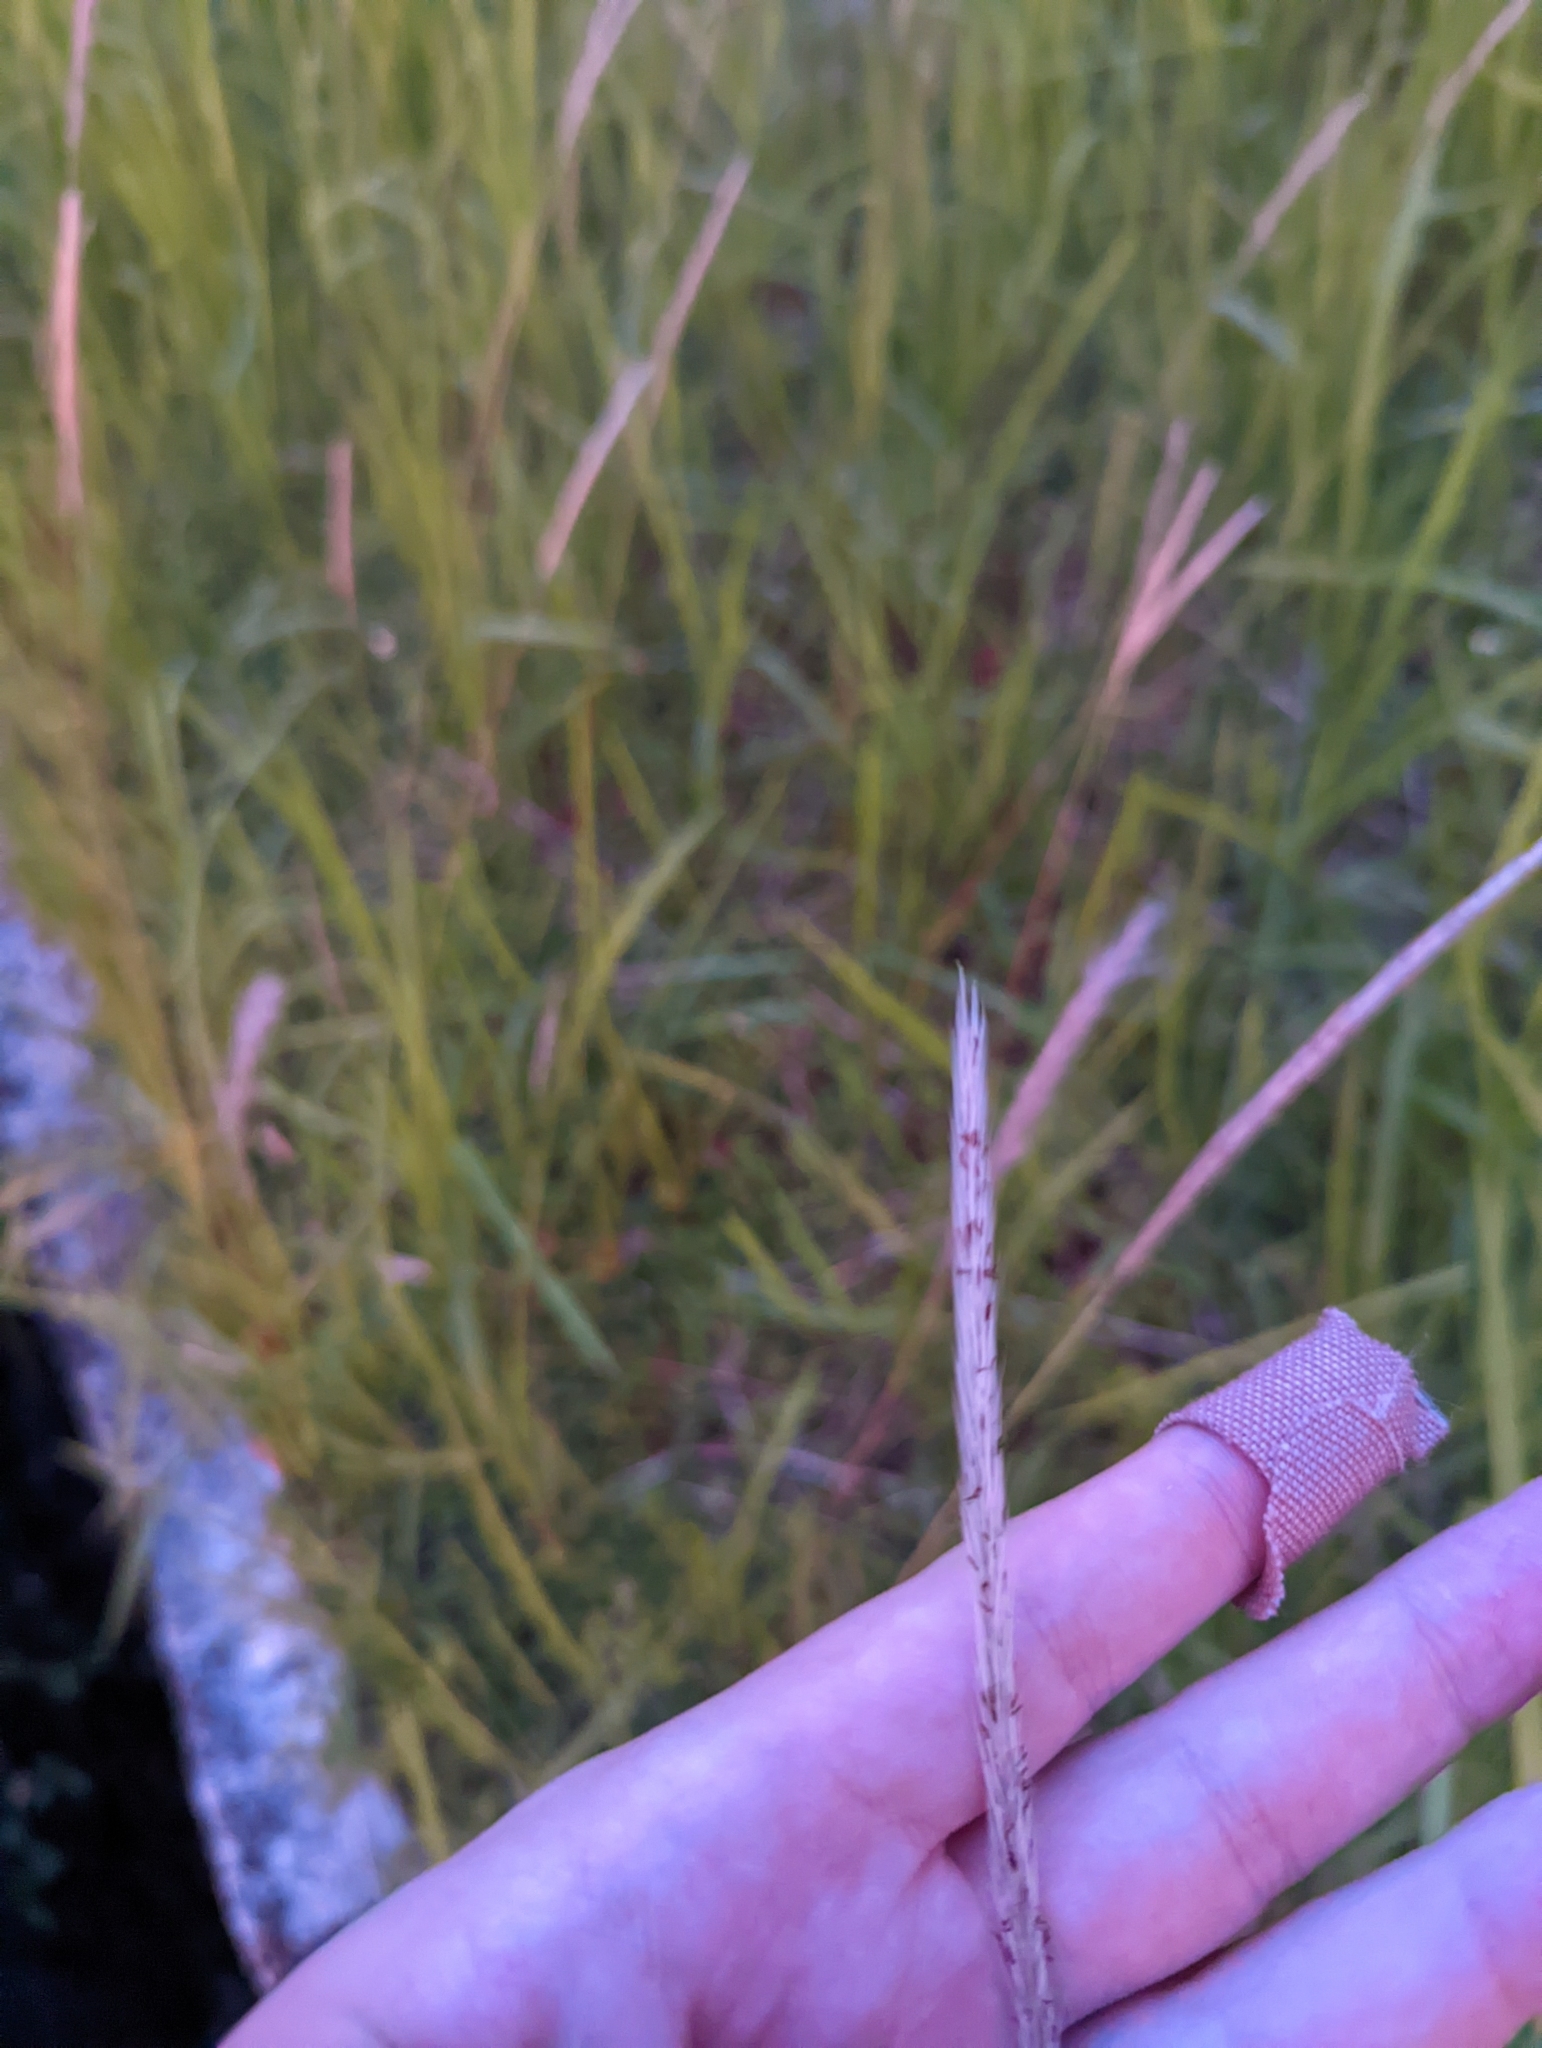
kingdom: Plantae
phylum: Tracheophyta
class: Liliopsida
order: Poales
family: Poaceae
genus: Imperata
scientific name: Imperata cylindrica
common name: Cogongrass
